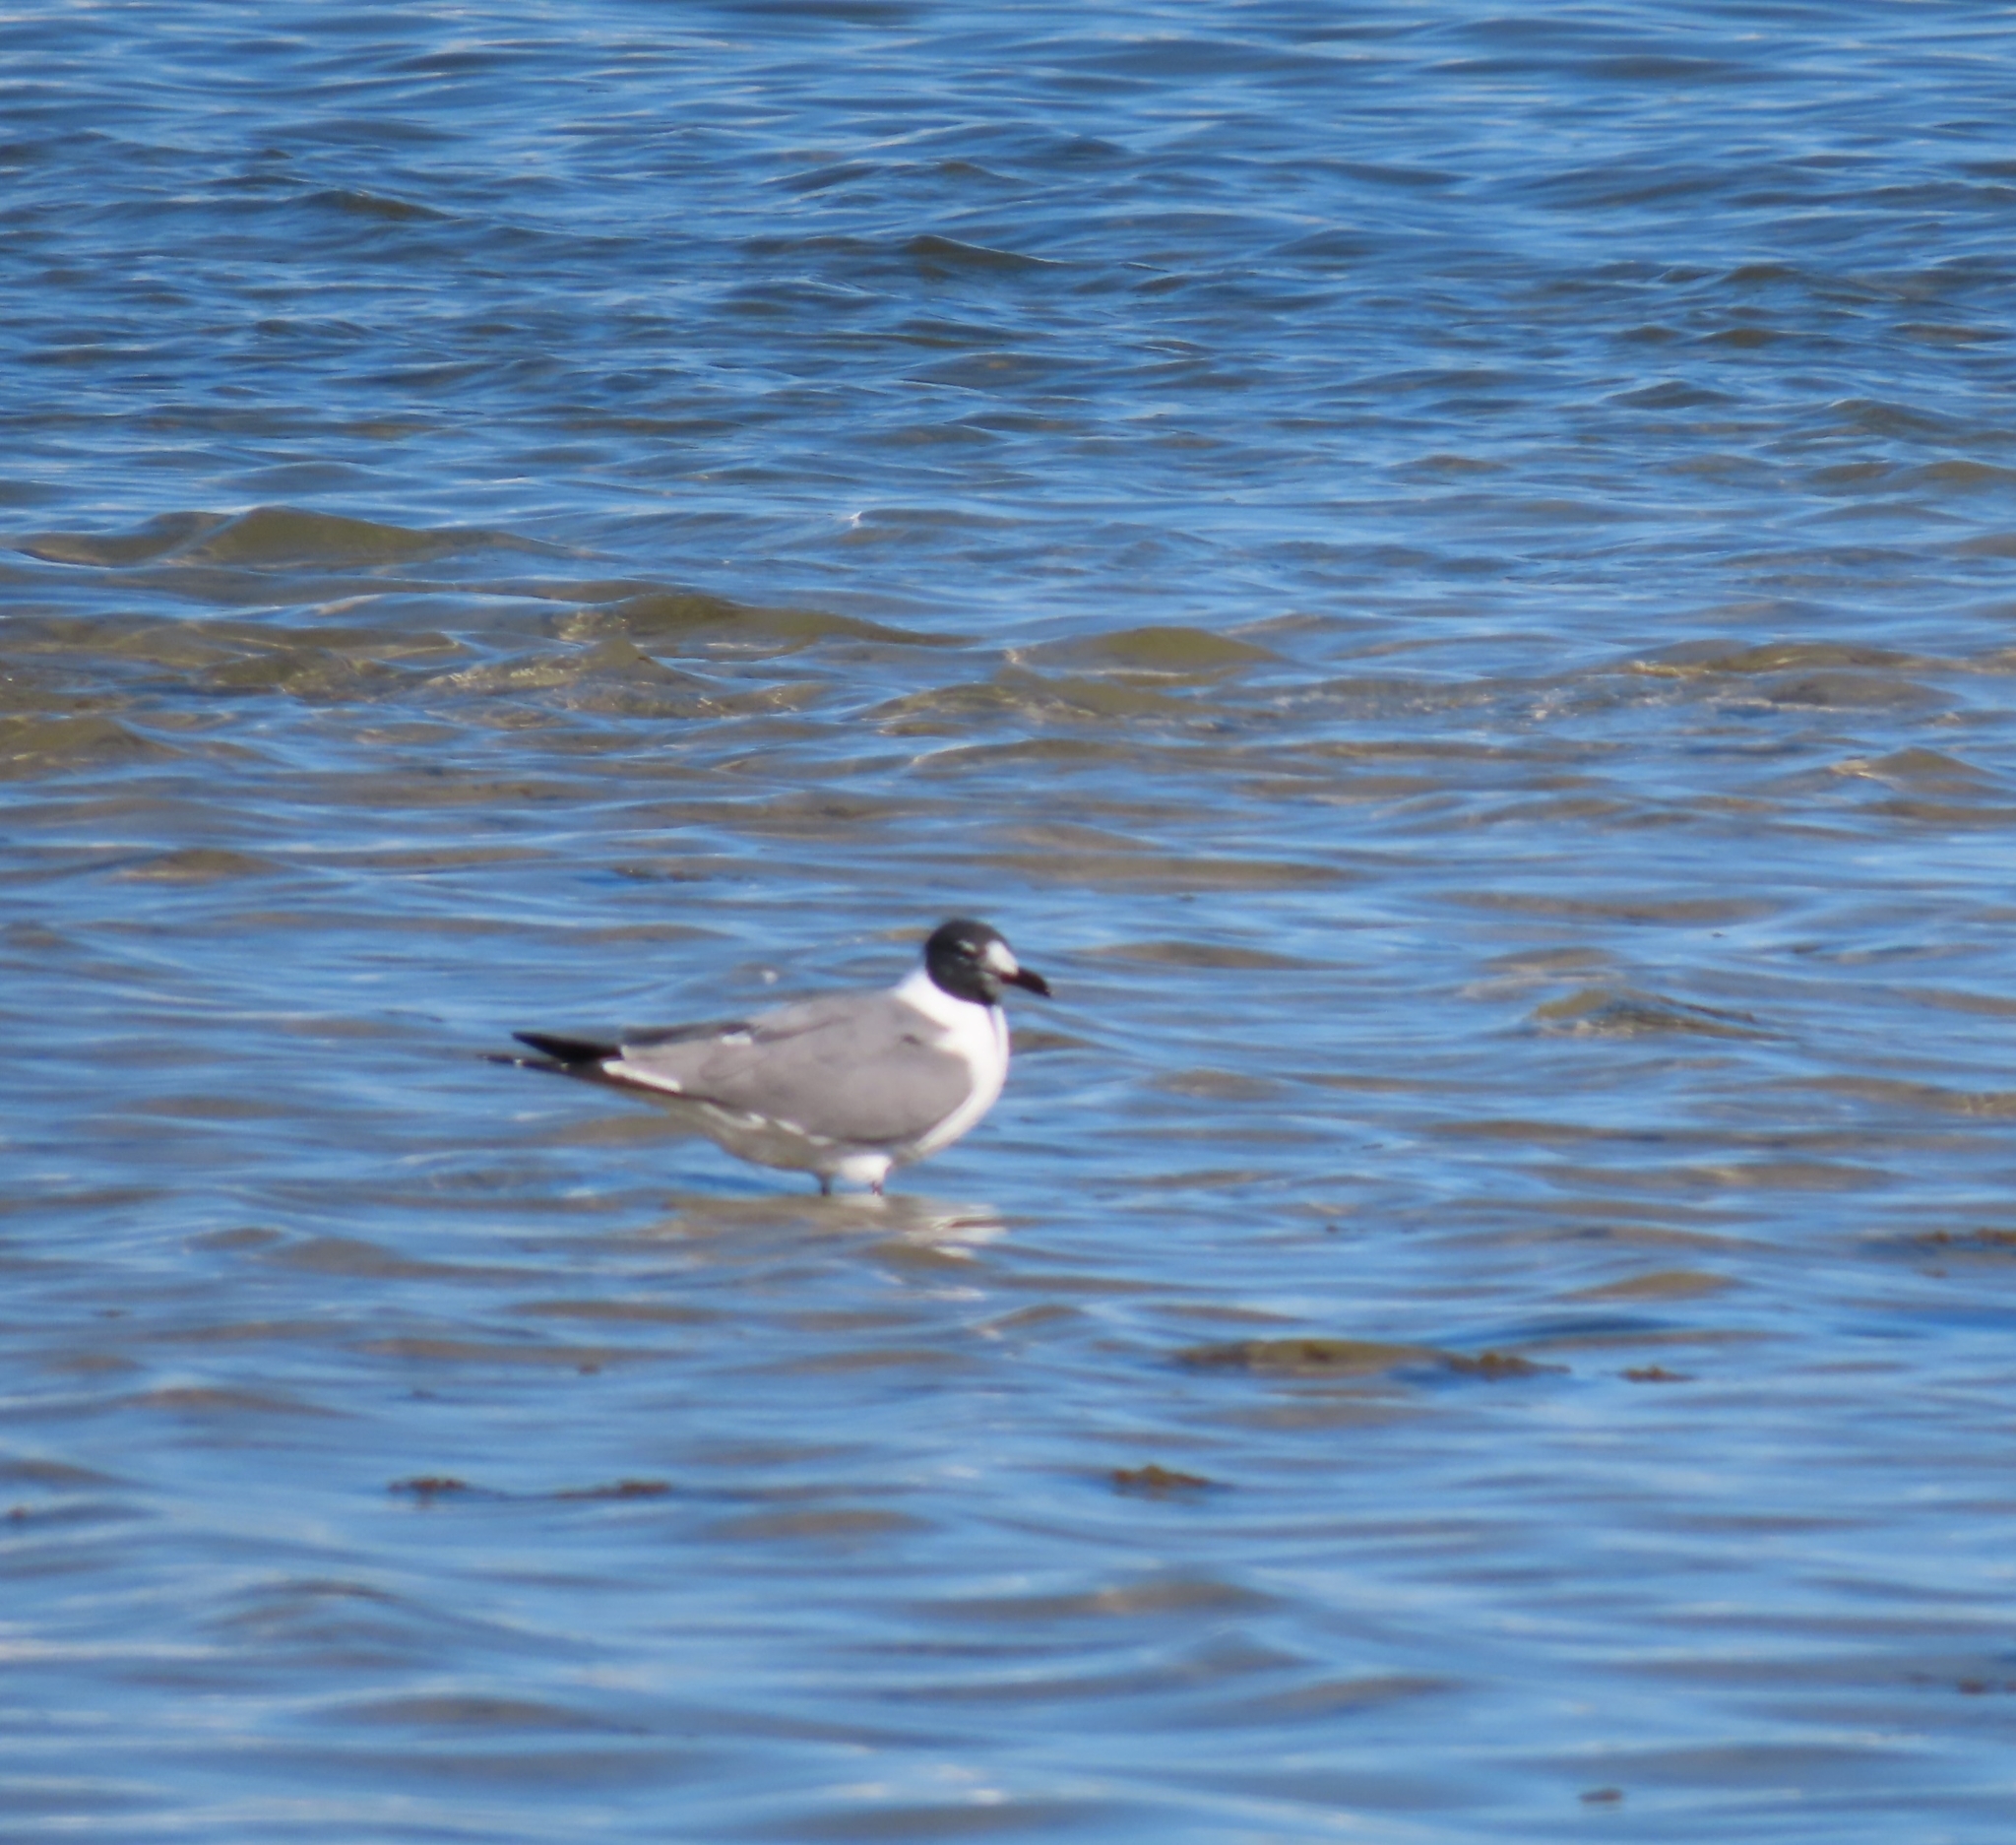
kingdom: Animalia
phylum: Chordata
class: Aves
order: Charadriiformes
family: Laridae
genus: Leucophaeus
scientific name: Leucophaeus atricilla
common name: Laughing gull
